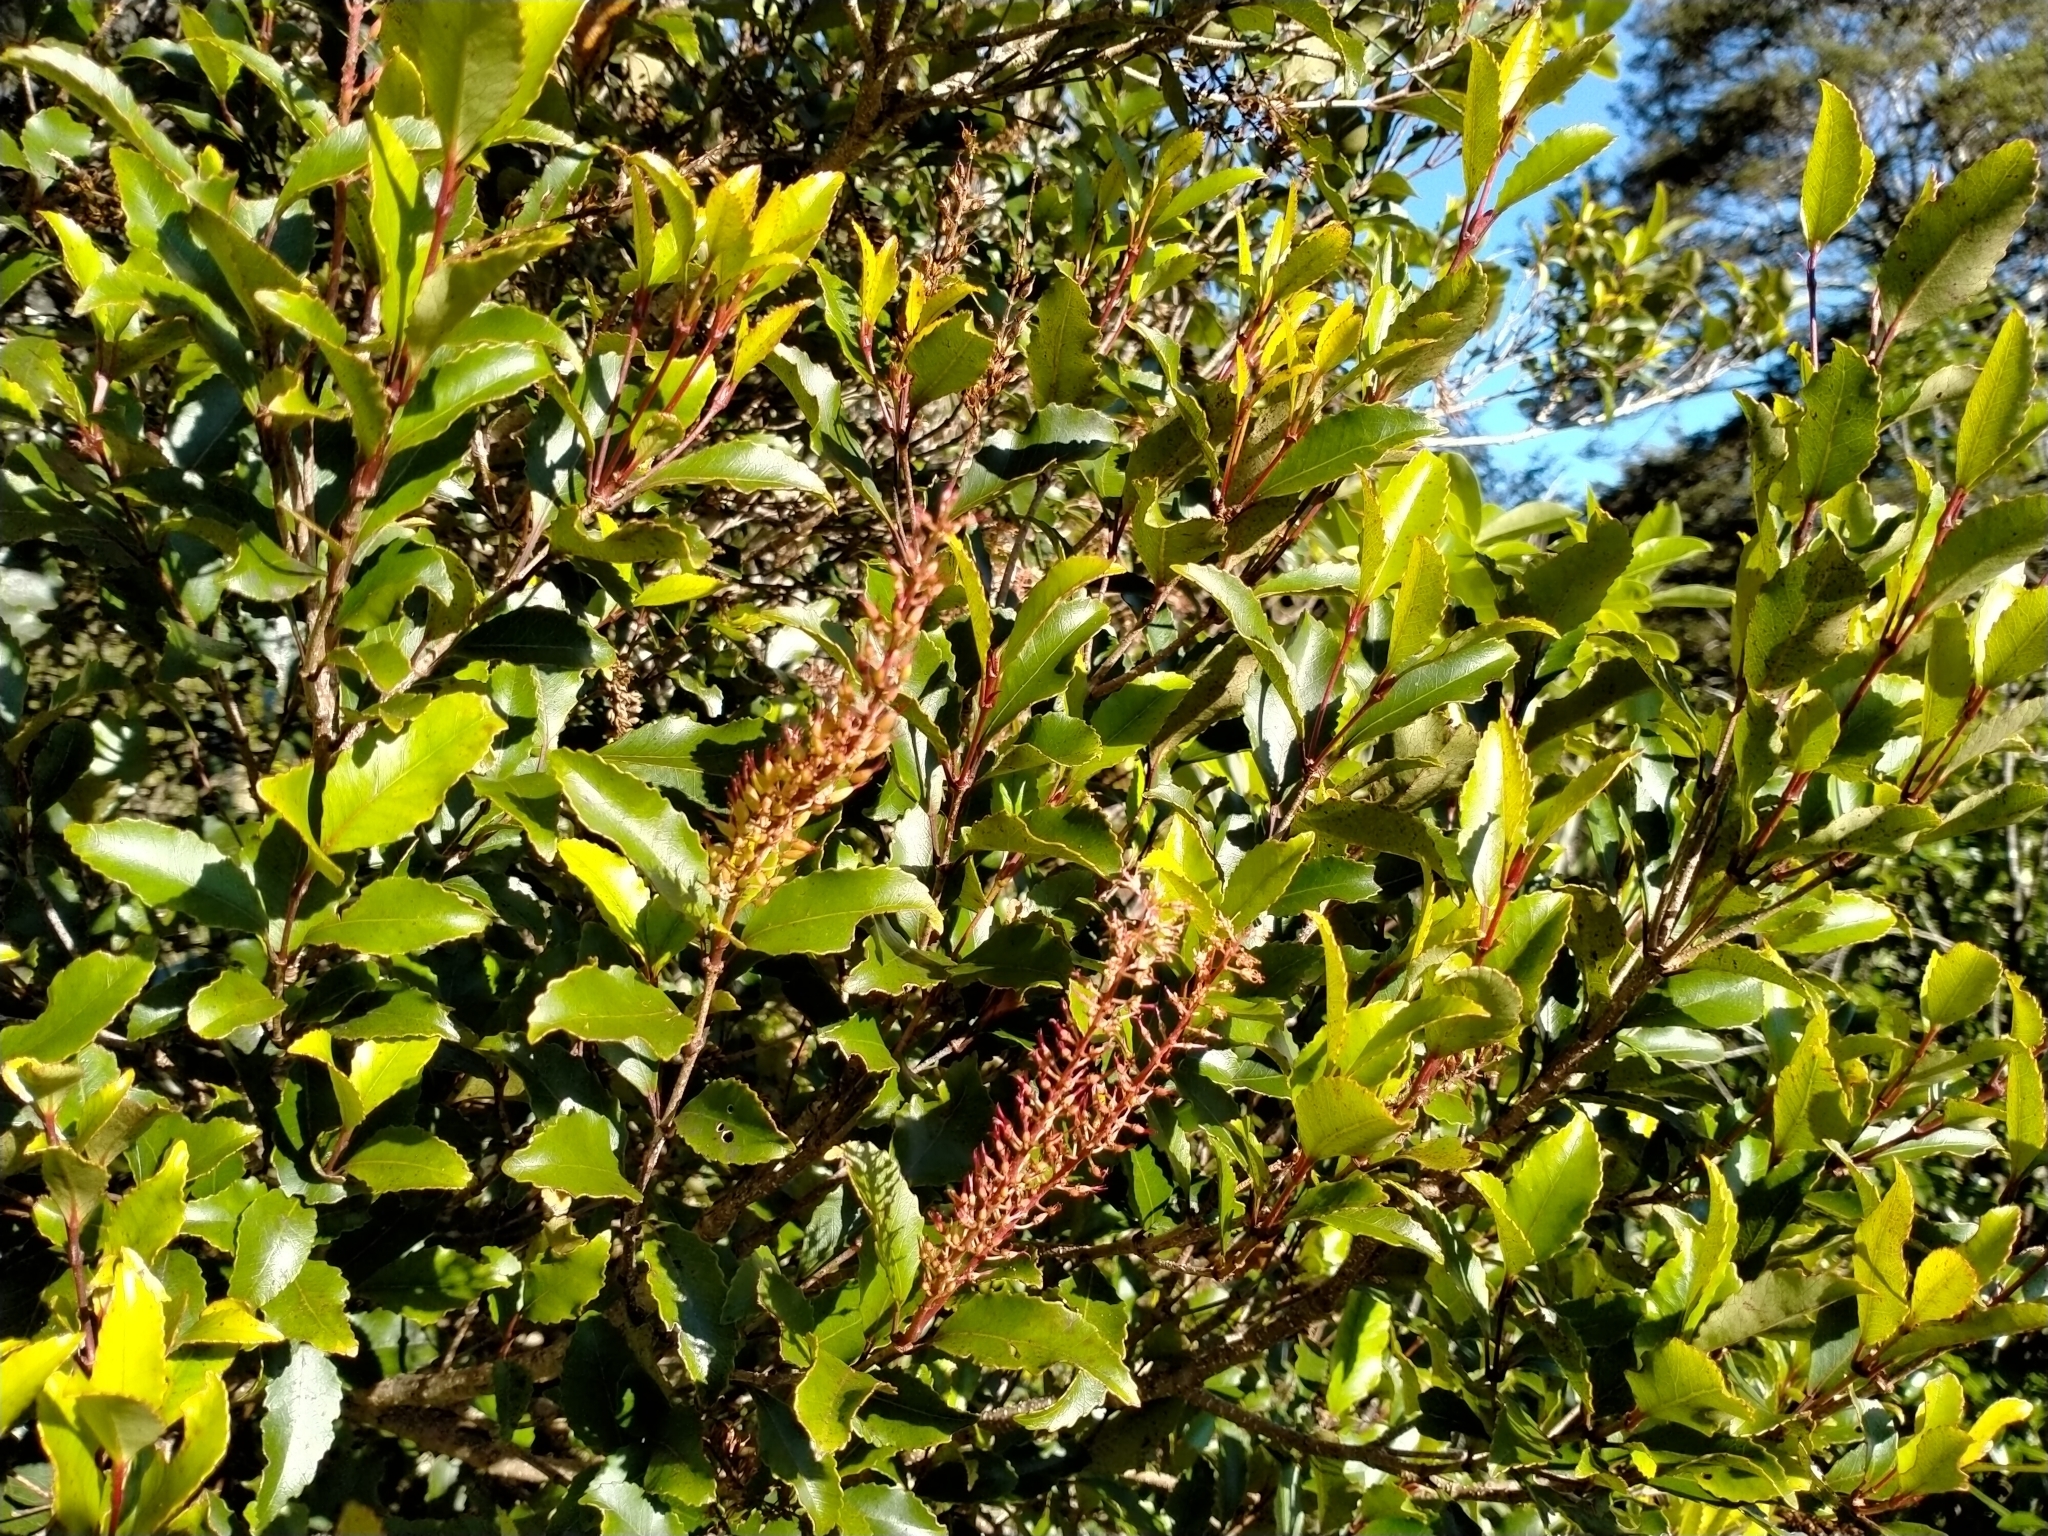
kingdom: Plantae
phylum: Tracheophyta
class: Magnoliopsida
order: Oxalidales
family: Cunoniaceae
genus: Pterophylla
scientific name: Pterophylla racemosa
